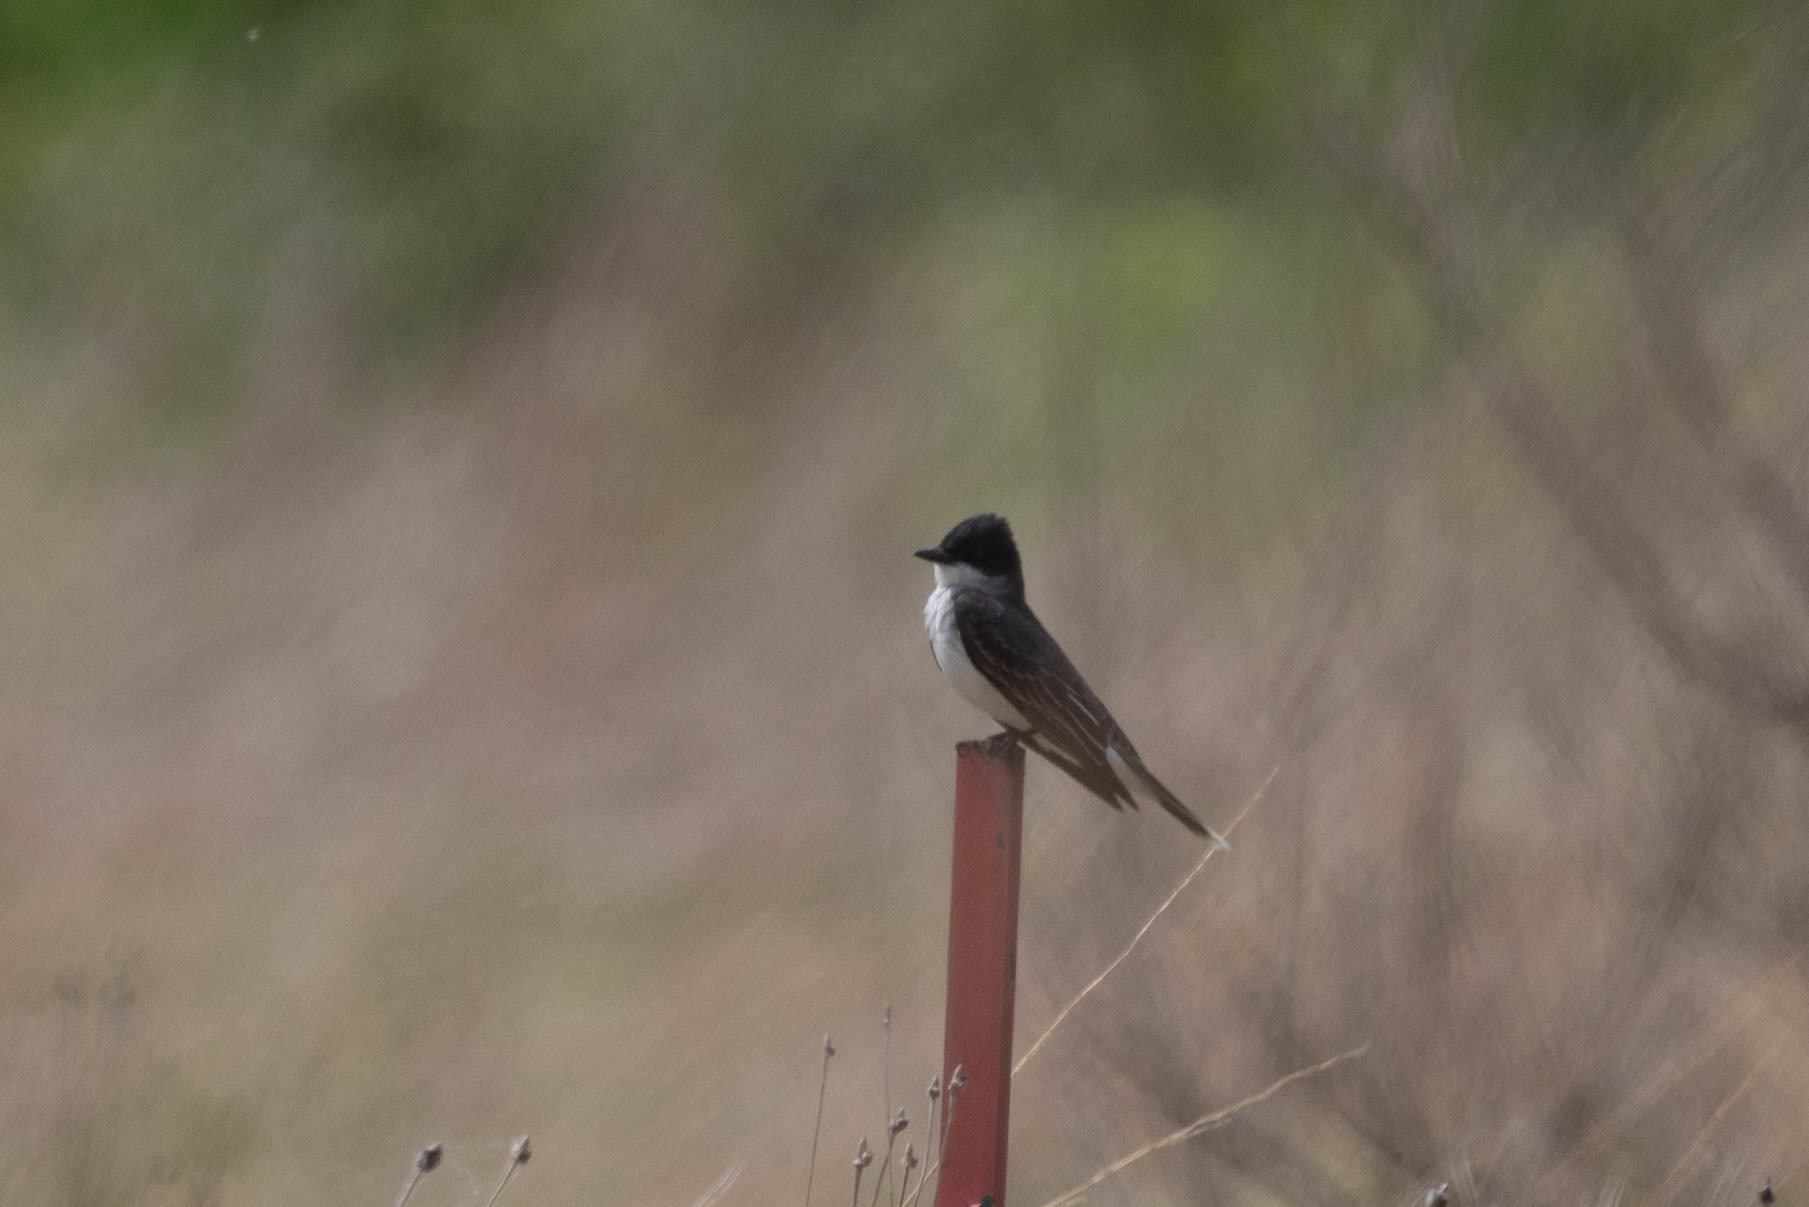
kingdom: Animalia
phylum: Chordata
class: Aves
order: Passeriformes
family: Tyrannidae
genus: Tyrannus
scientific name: Tyrannus tyrannus
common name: Eastern kingbird
